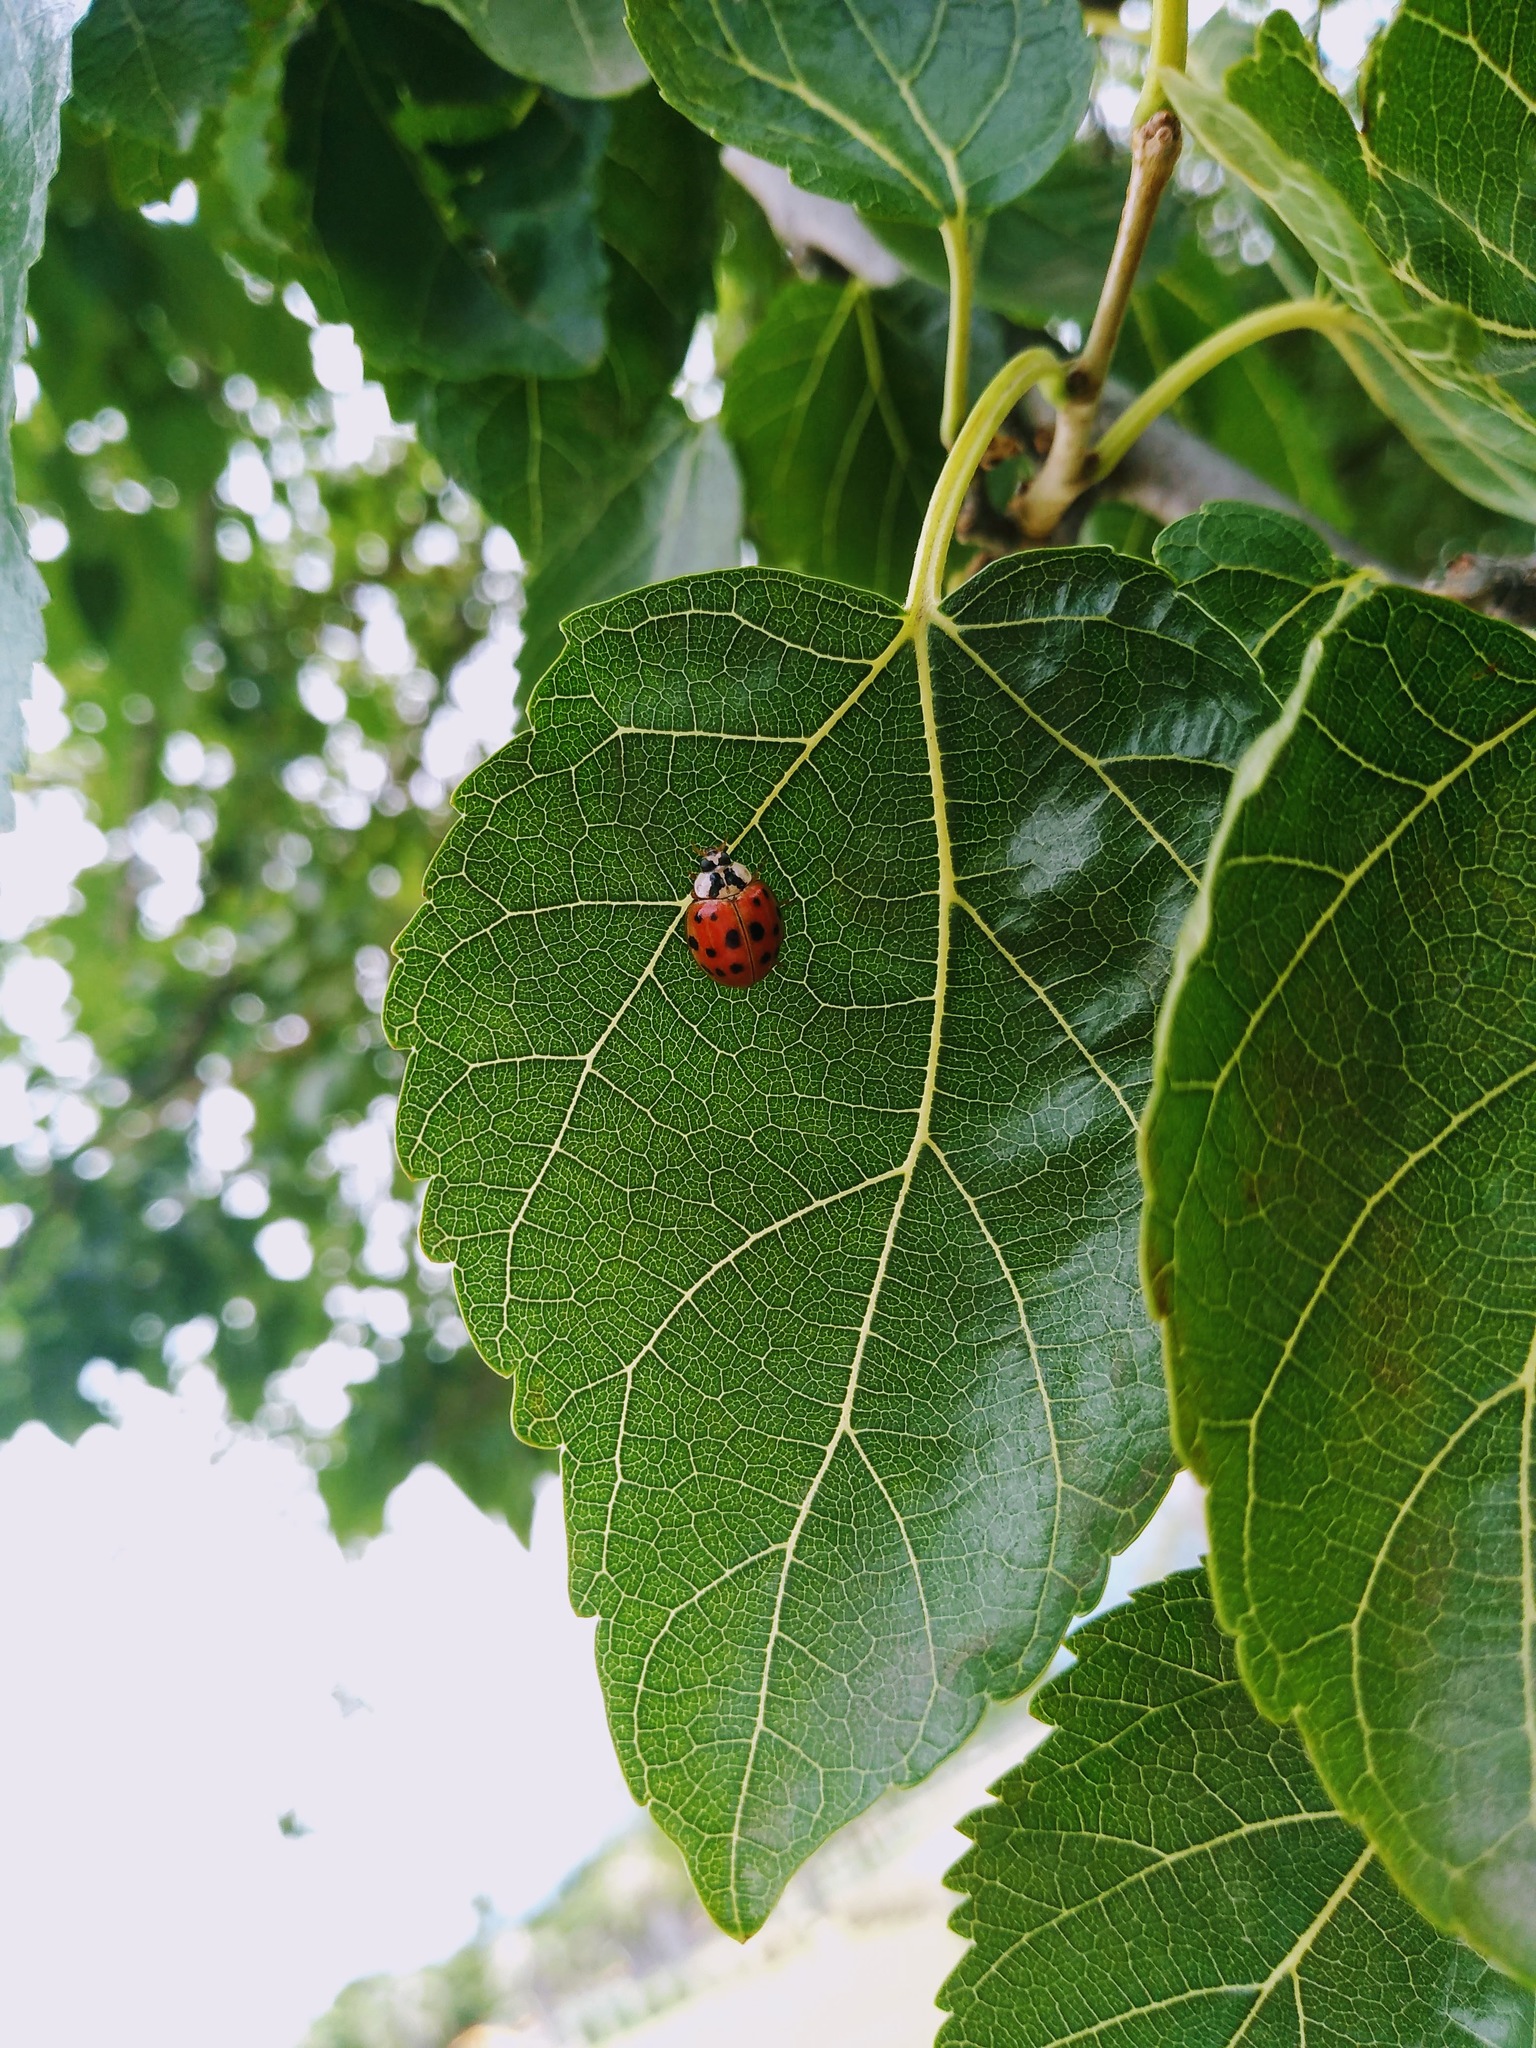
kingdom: Animalia
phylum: Arthropoda
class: Insecta
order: Coleoptera
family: Coccinellidae
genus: Harmonia
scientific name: Harmonia axyridis
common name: Harlequin ladybird
